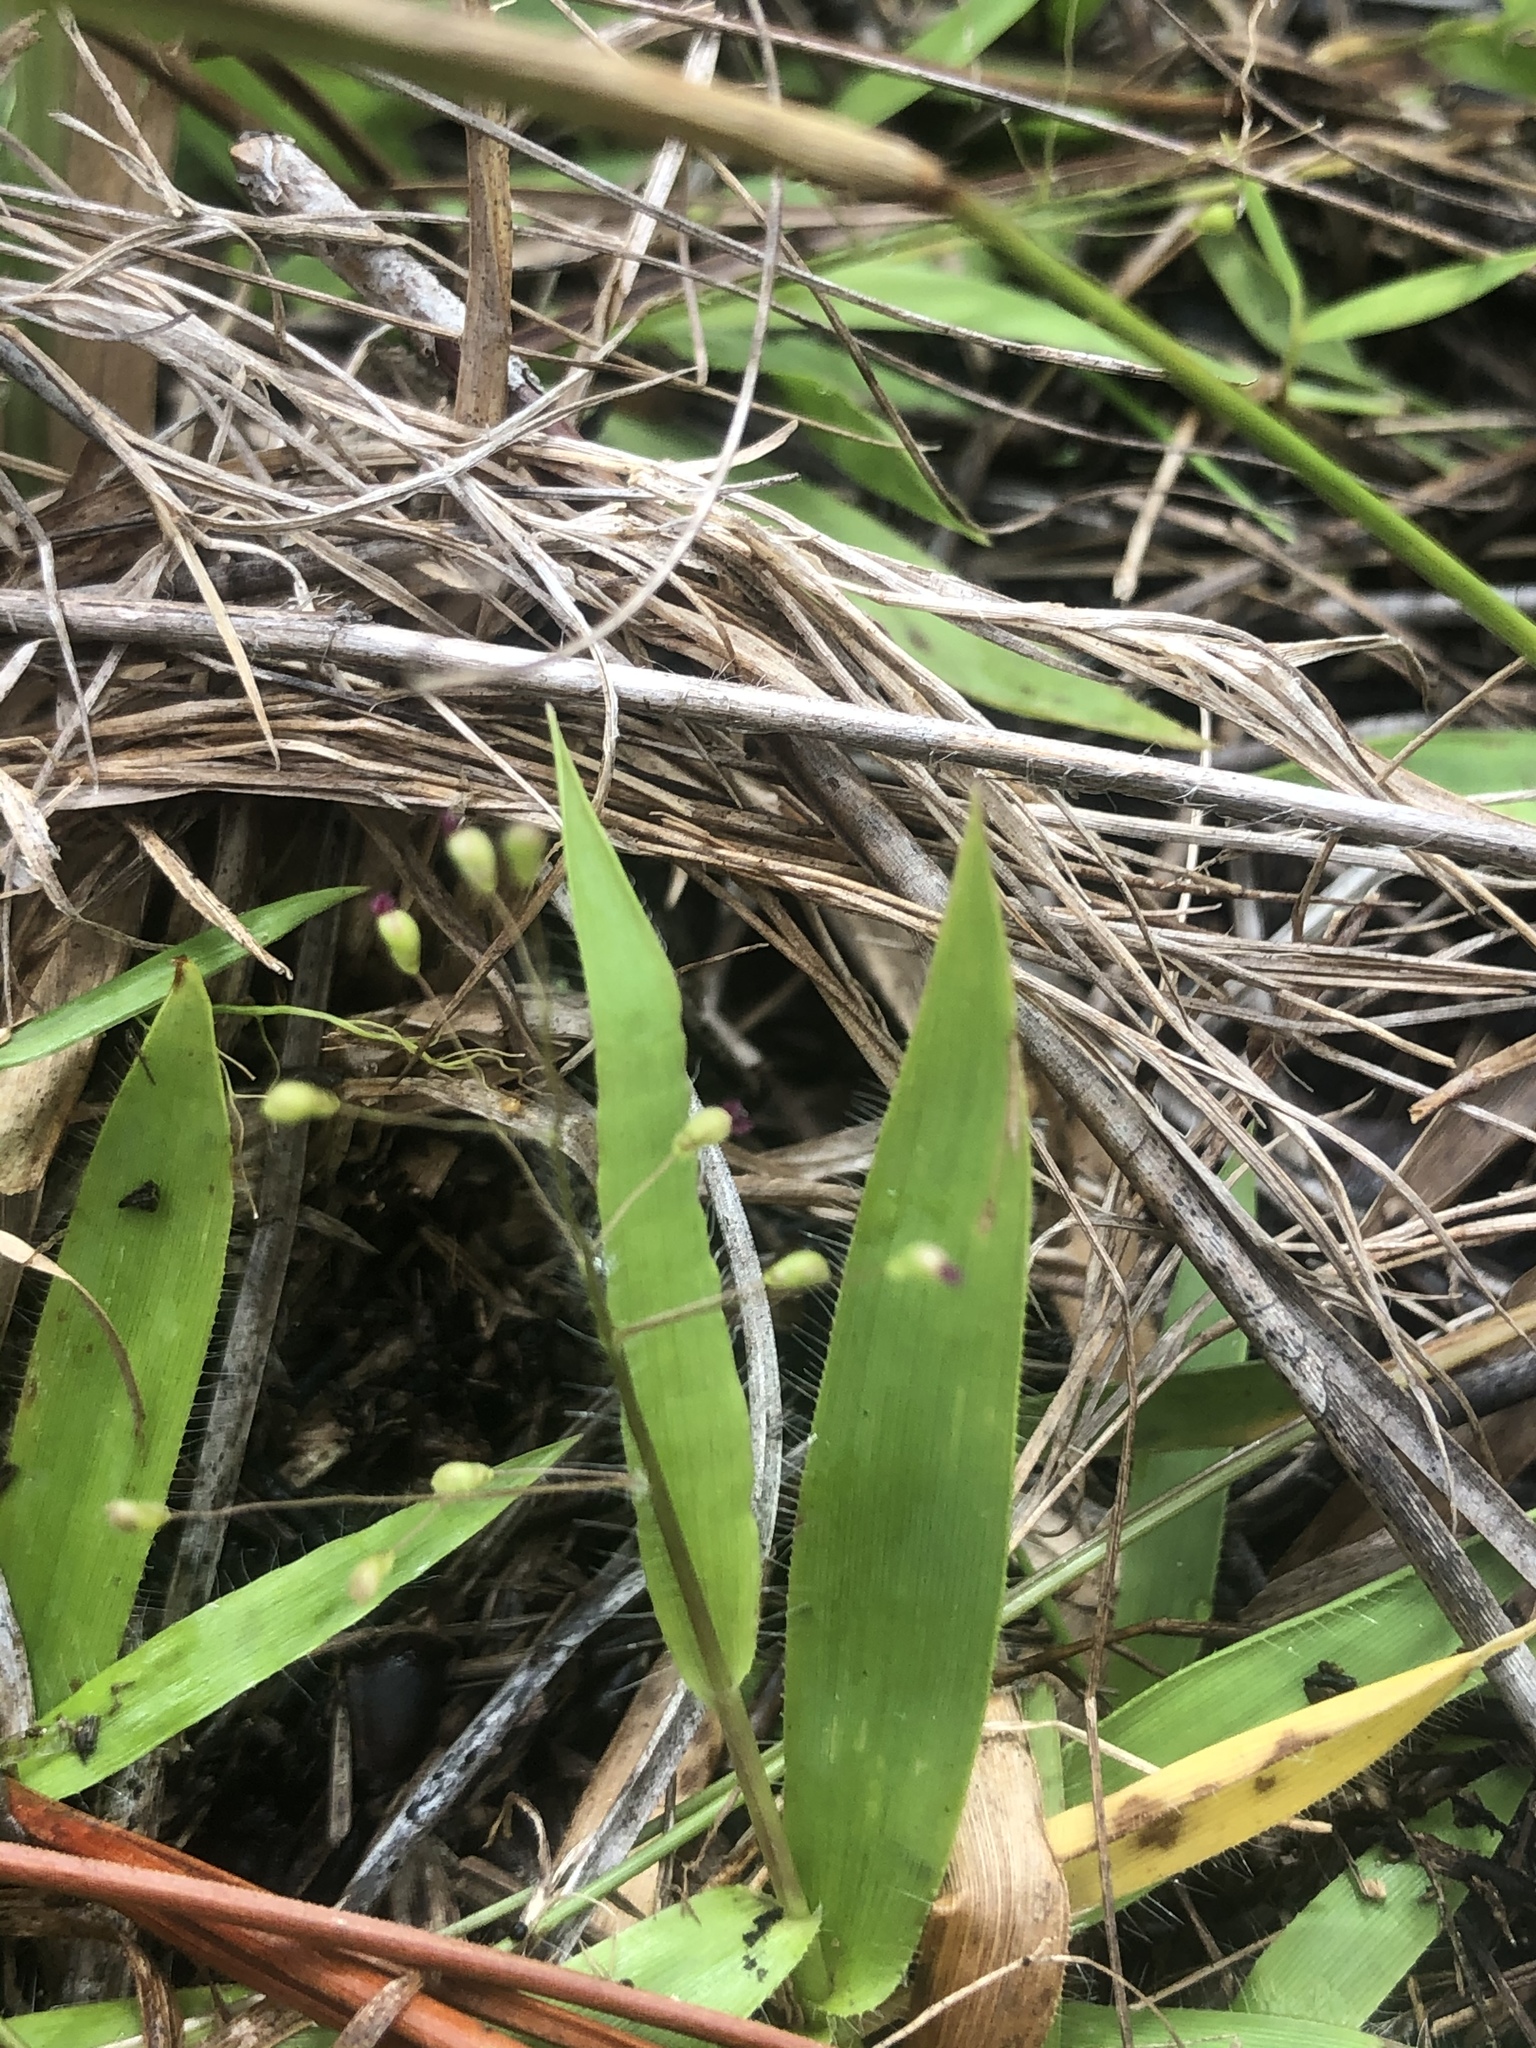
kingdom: Plantae
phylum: Tracheophyta
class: Liliopsida
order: Poales
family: Poaceae
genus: Dichanthelium
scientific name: Dichanthelium strigosum
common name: Cushion-tuft panic grass
